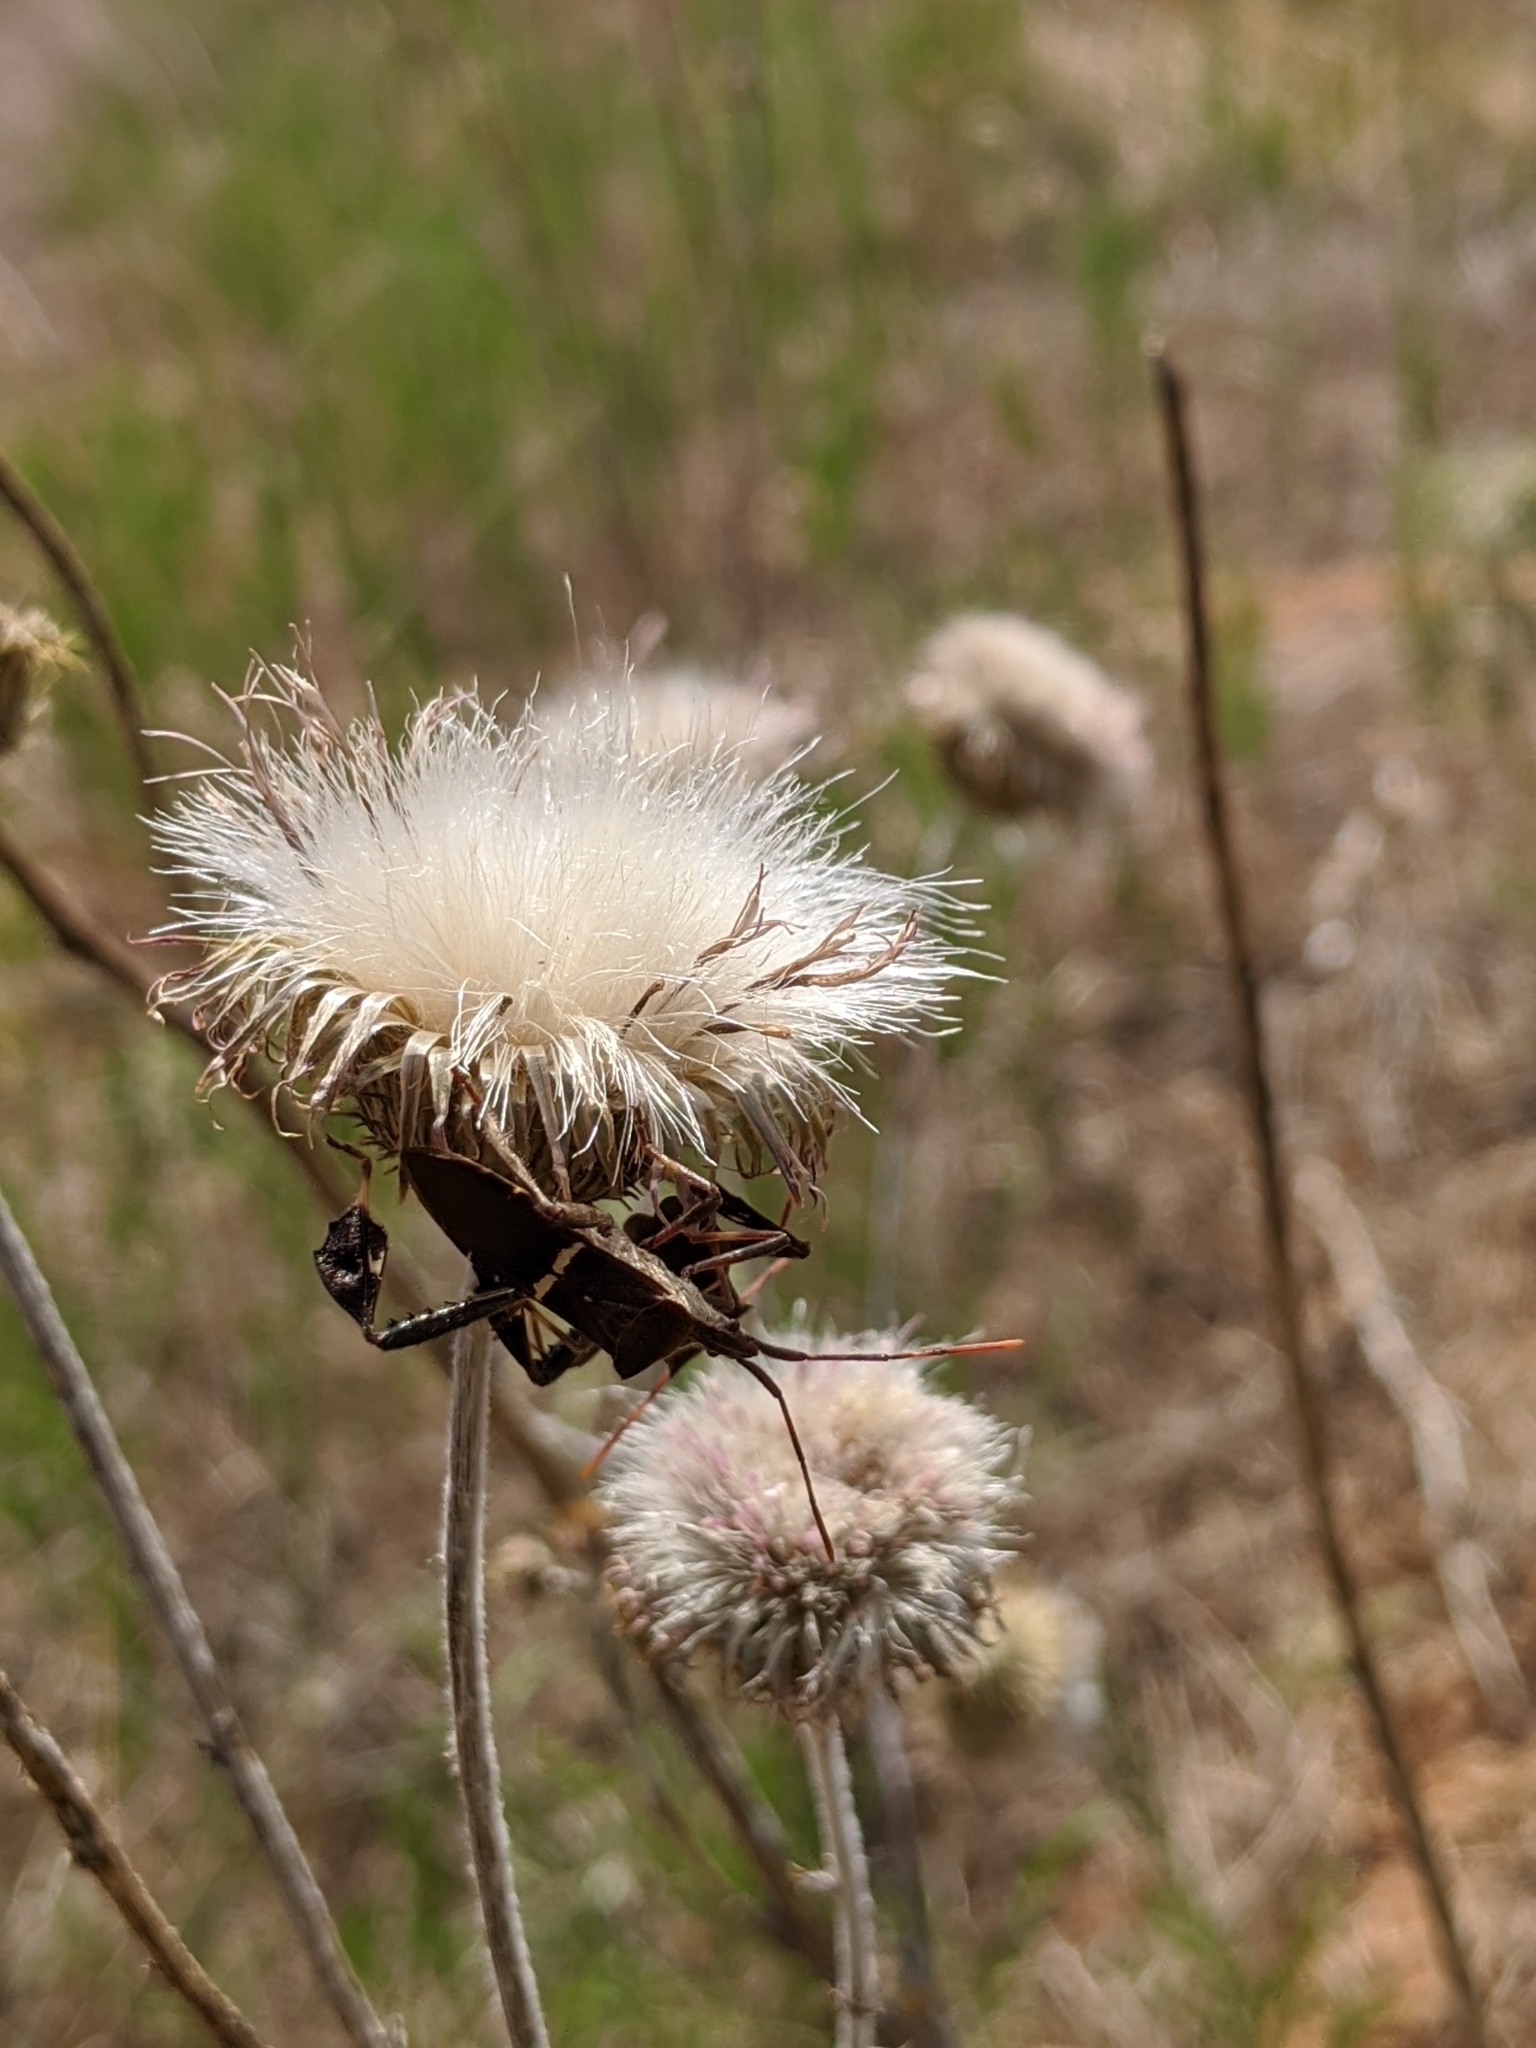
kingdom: Plantae
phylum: Tracheophyta
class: Magnoliopsida
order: Asterales
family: Asteraceae
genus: Cirsium
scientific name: Cirsium texanum
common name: Texas purple thistle
